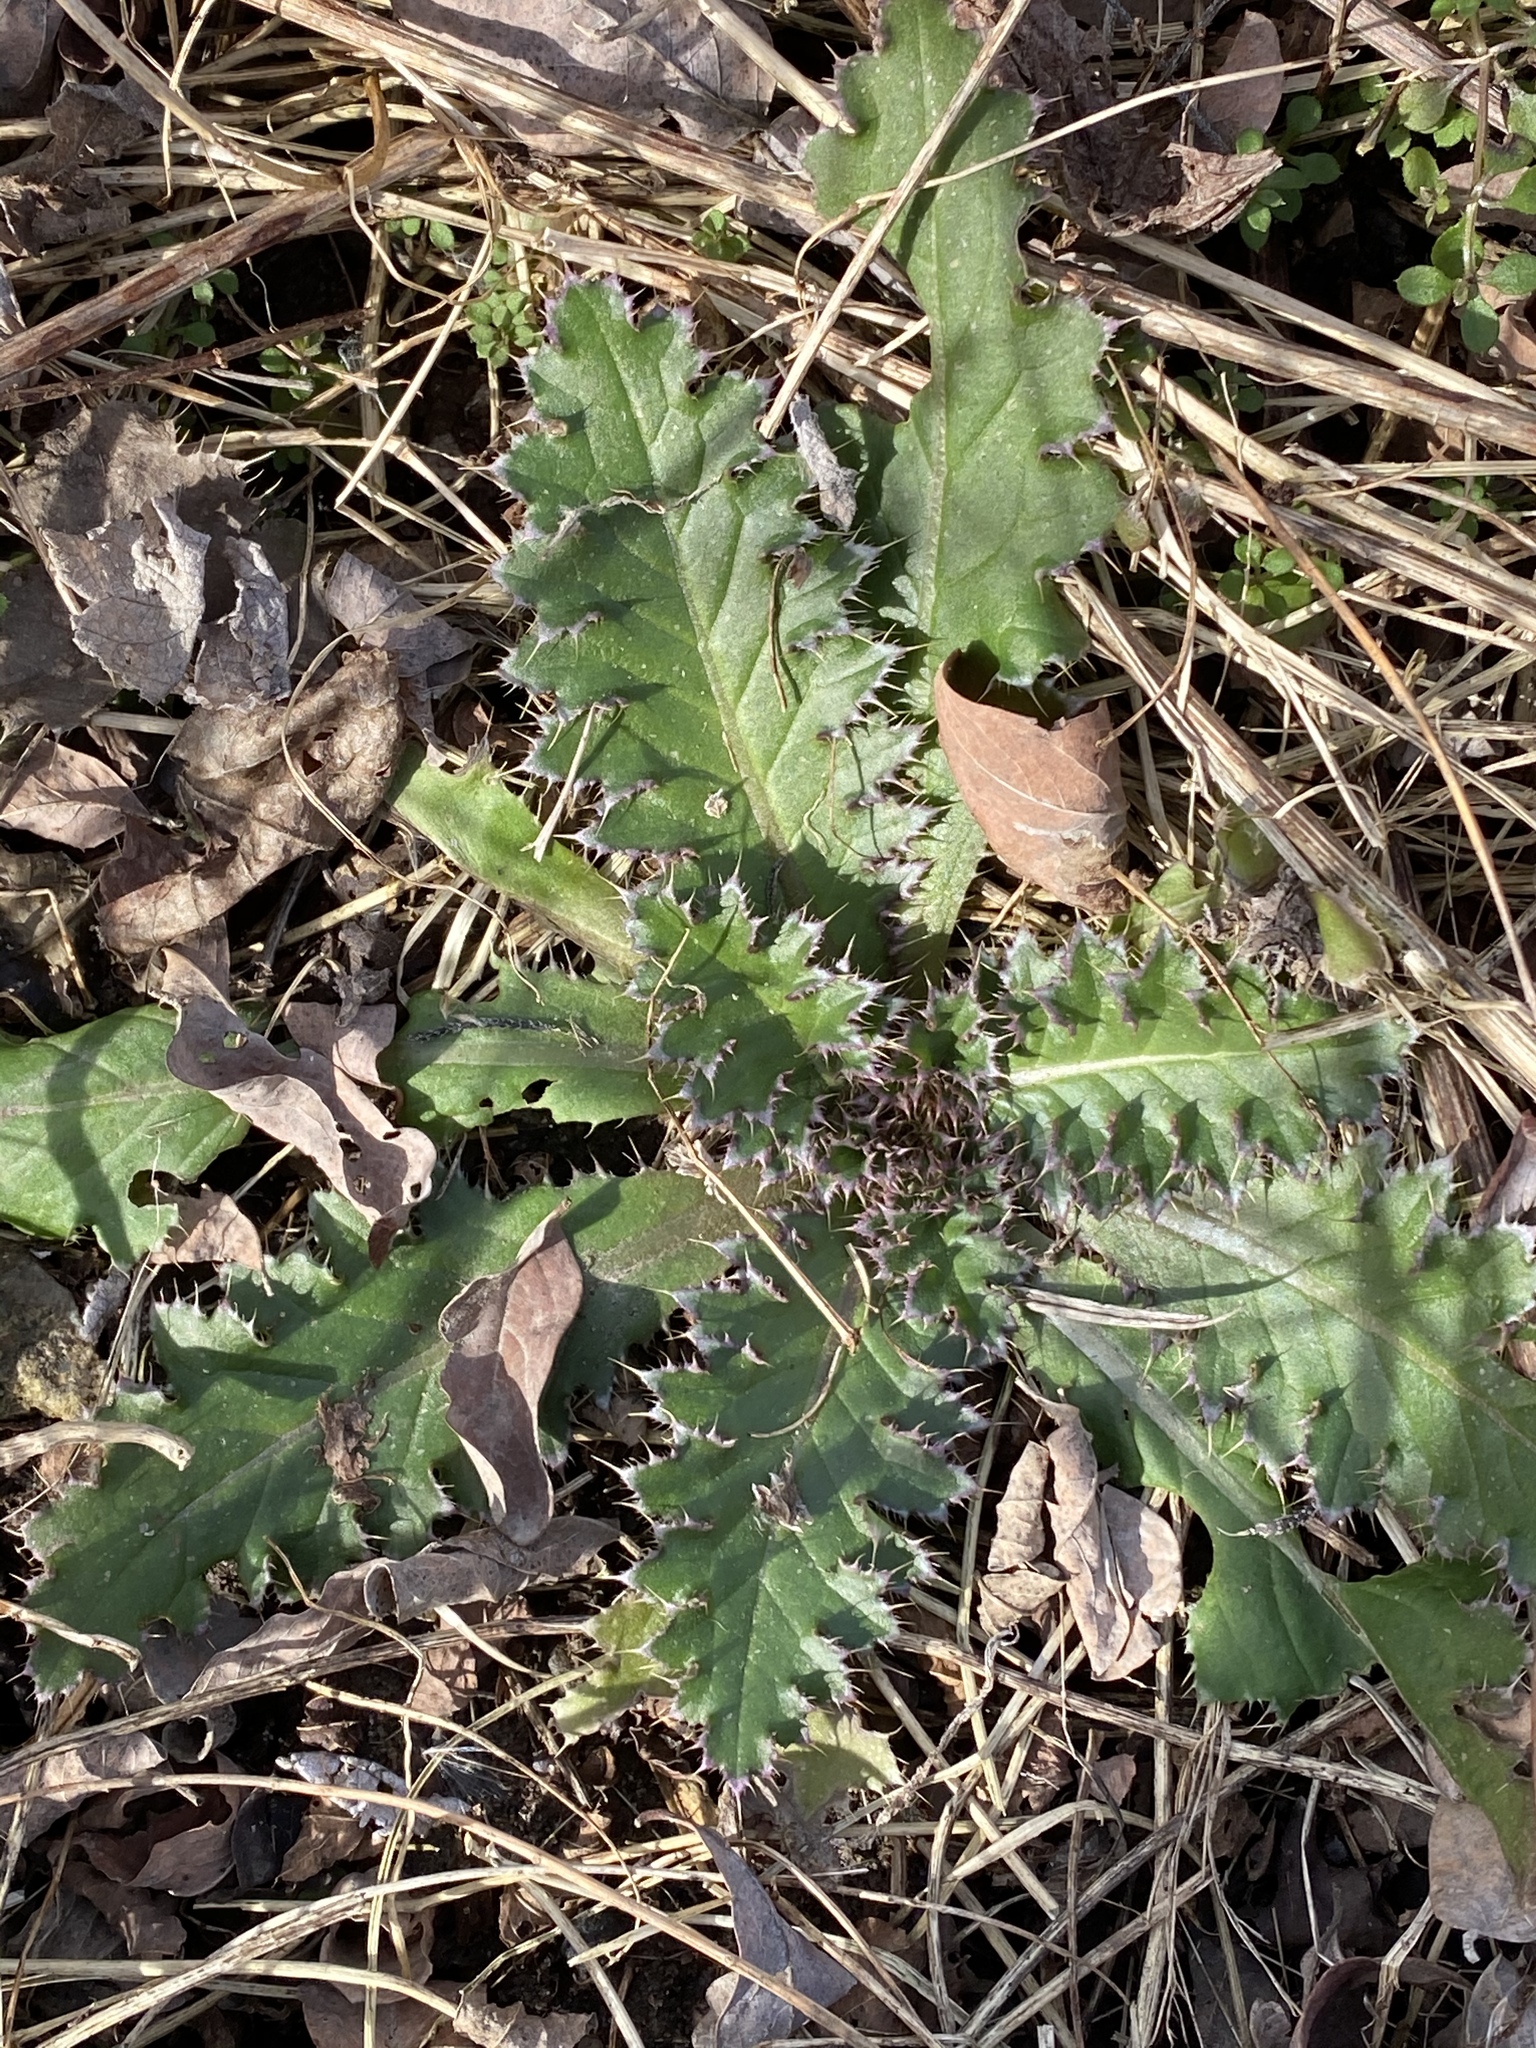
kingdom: Plantae
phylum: Tracheophyta
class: Magnoliopsida
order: Asterales
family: Asteraceae
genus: Cirsium
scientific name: Cirsium pumilum
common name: Pasture thistle
